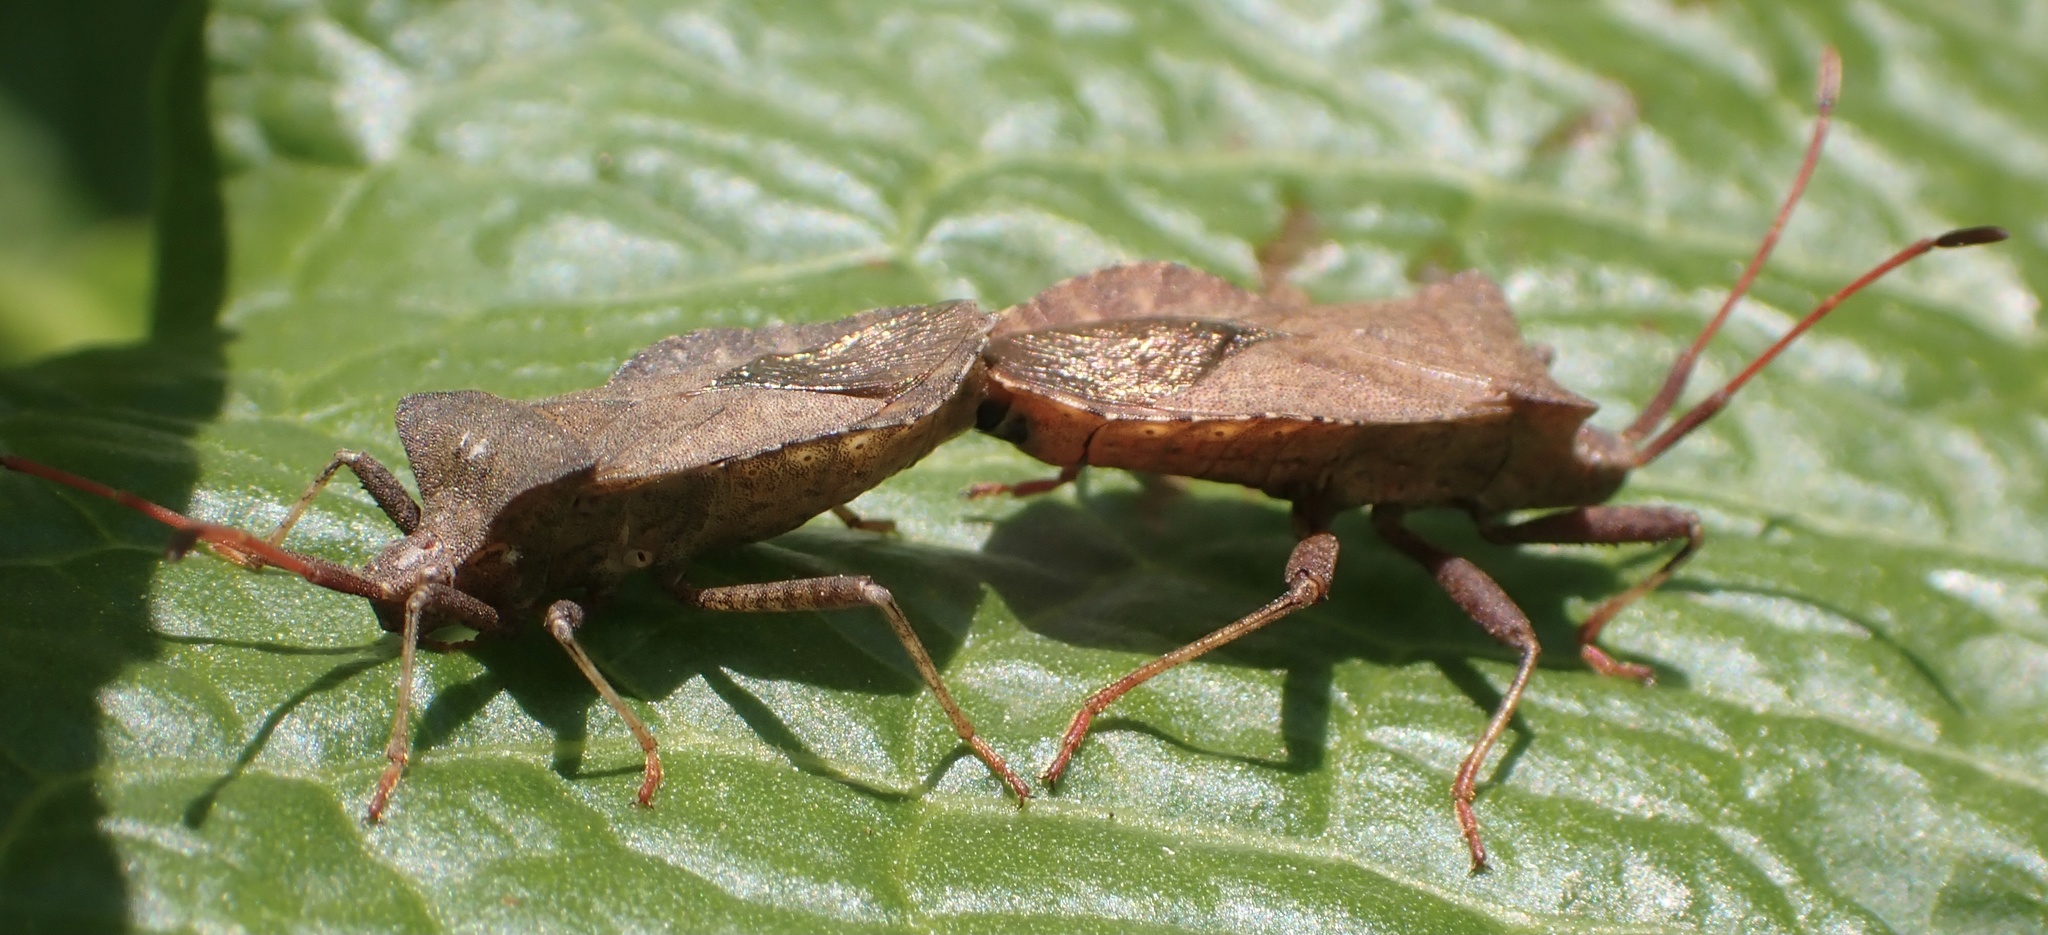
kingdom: Animalia
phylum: Arthropoda
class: Insecta
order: Hemiptera
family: Coreidae
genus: Coreus
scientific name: Coreus marginatus
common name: Dock bug
